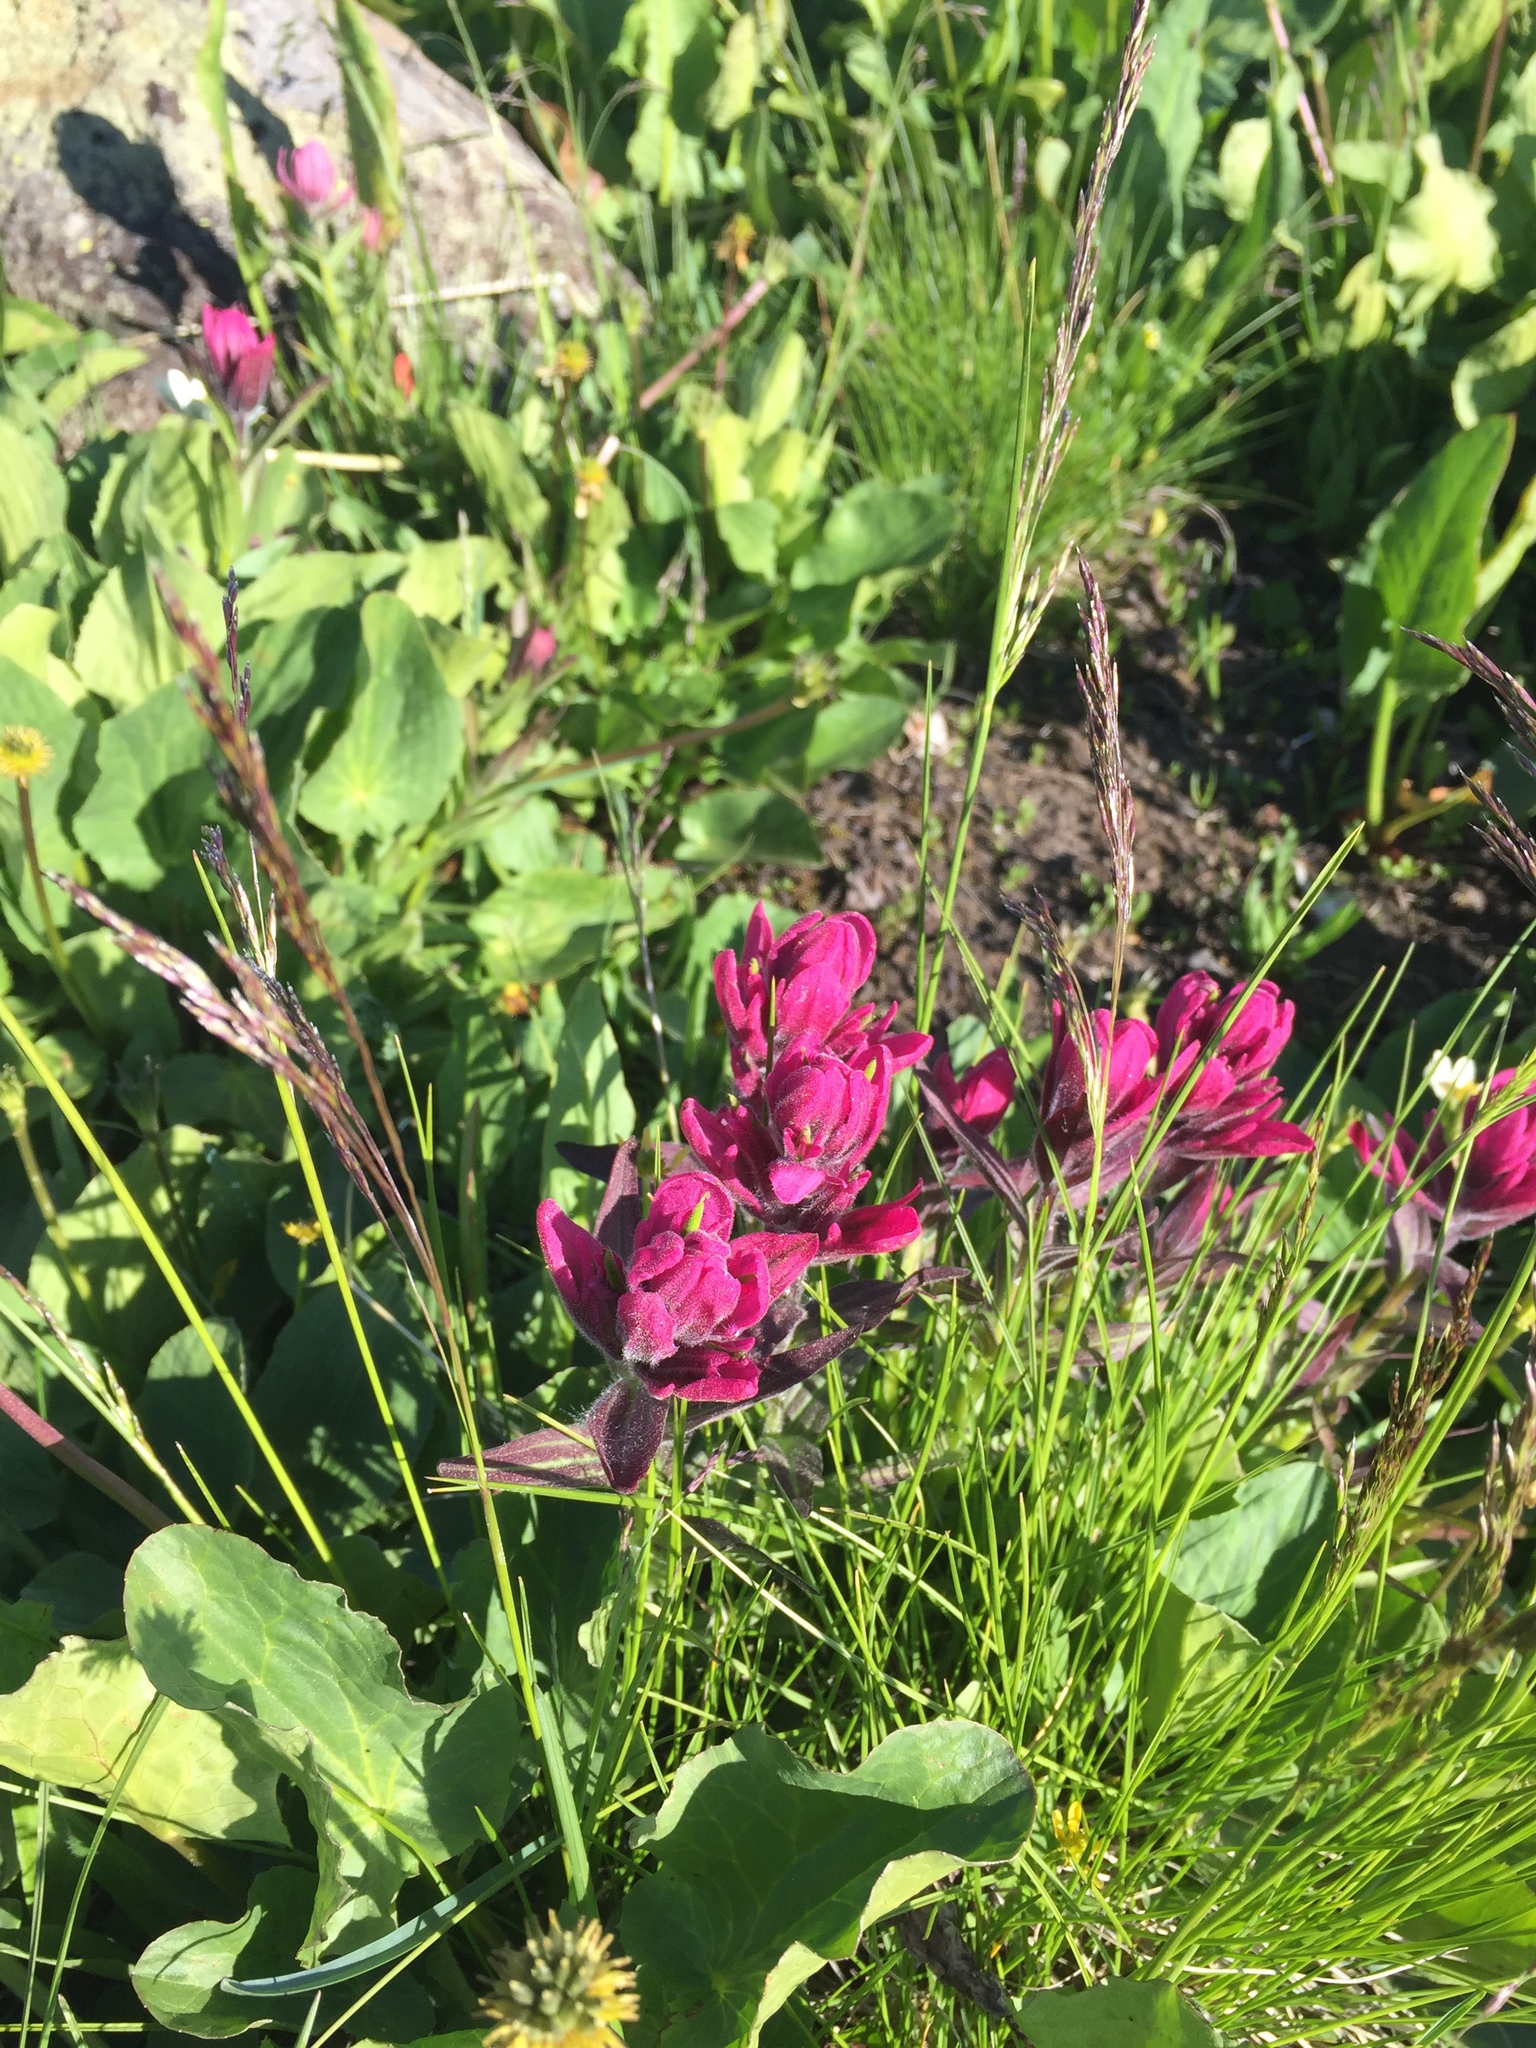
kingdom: Plantae
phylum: Tracheophyta
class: Magnoliopsida
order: Lamiales
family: Orobanchaceae
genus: Castilleja
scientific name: Castilleja rhexifolia
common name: Rocky mountain paintbrush
